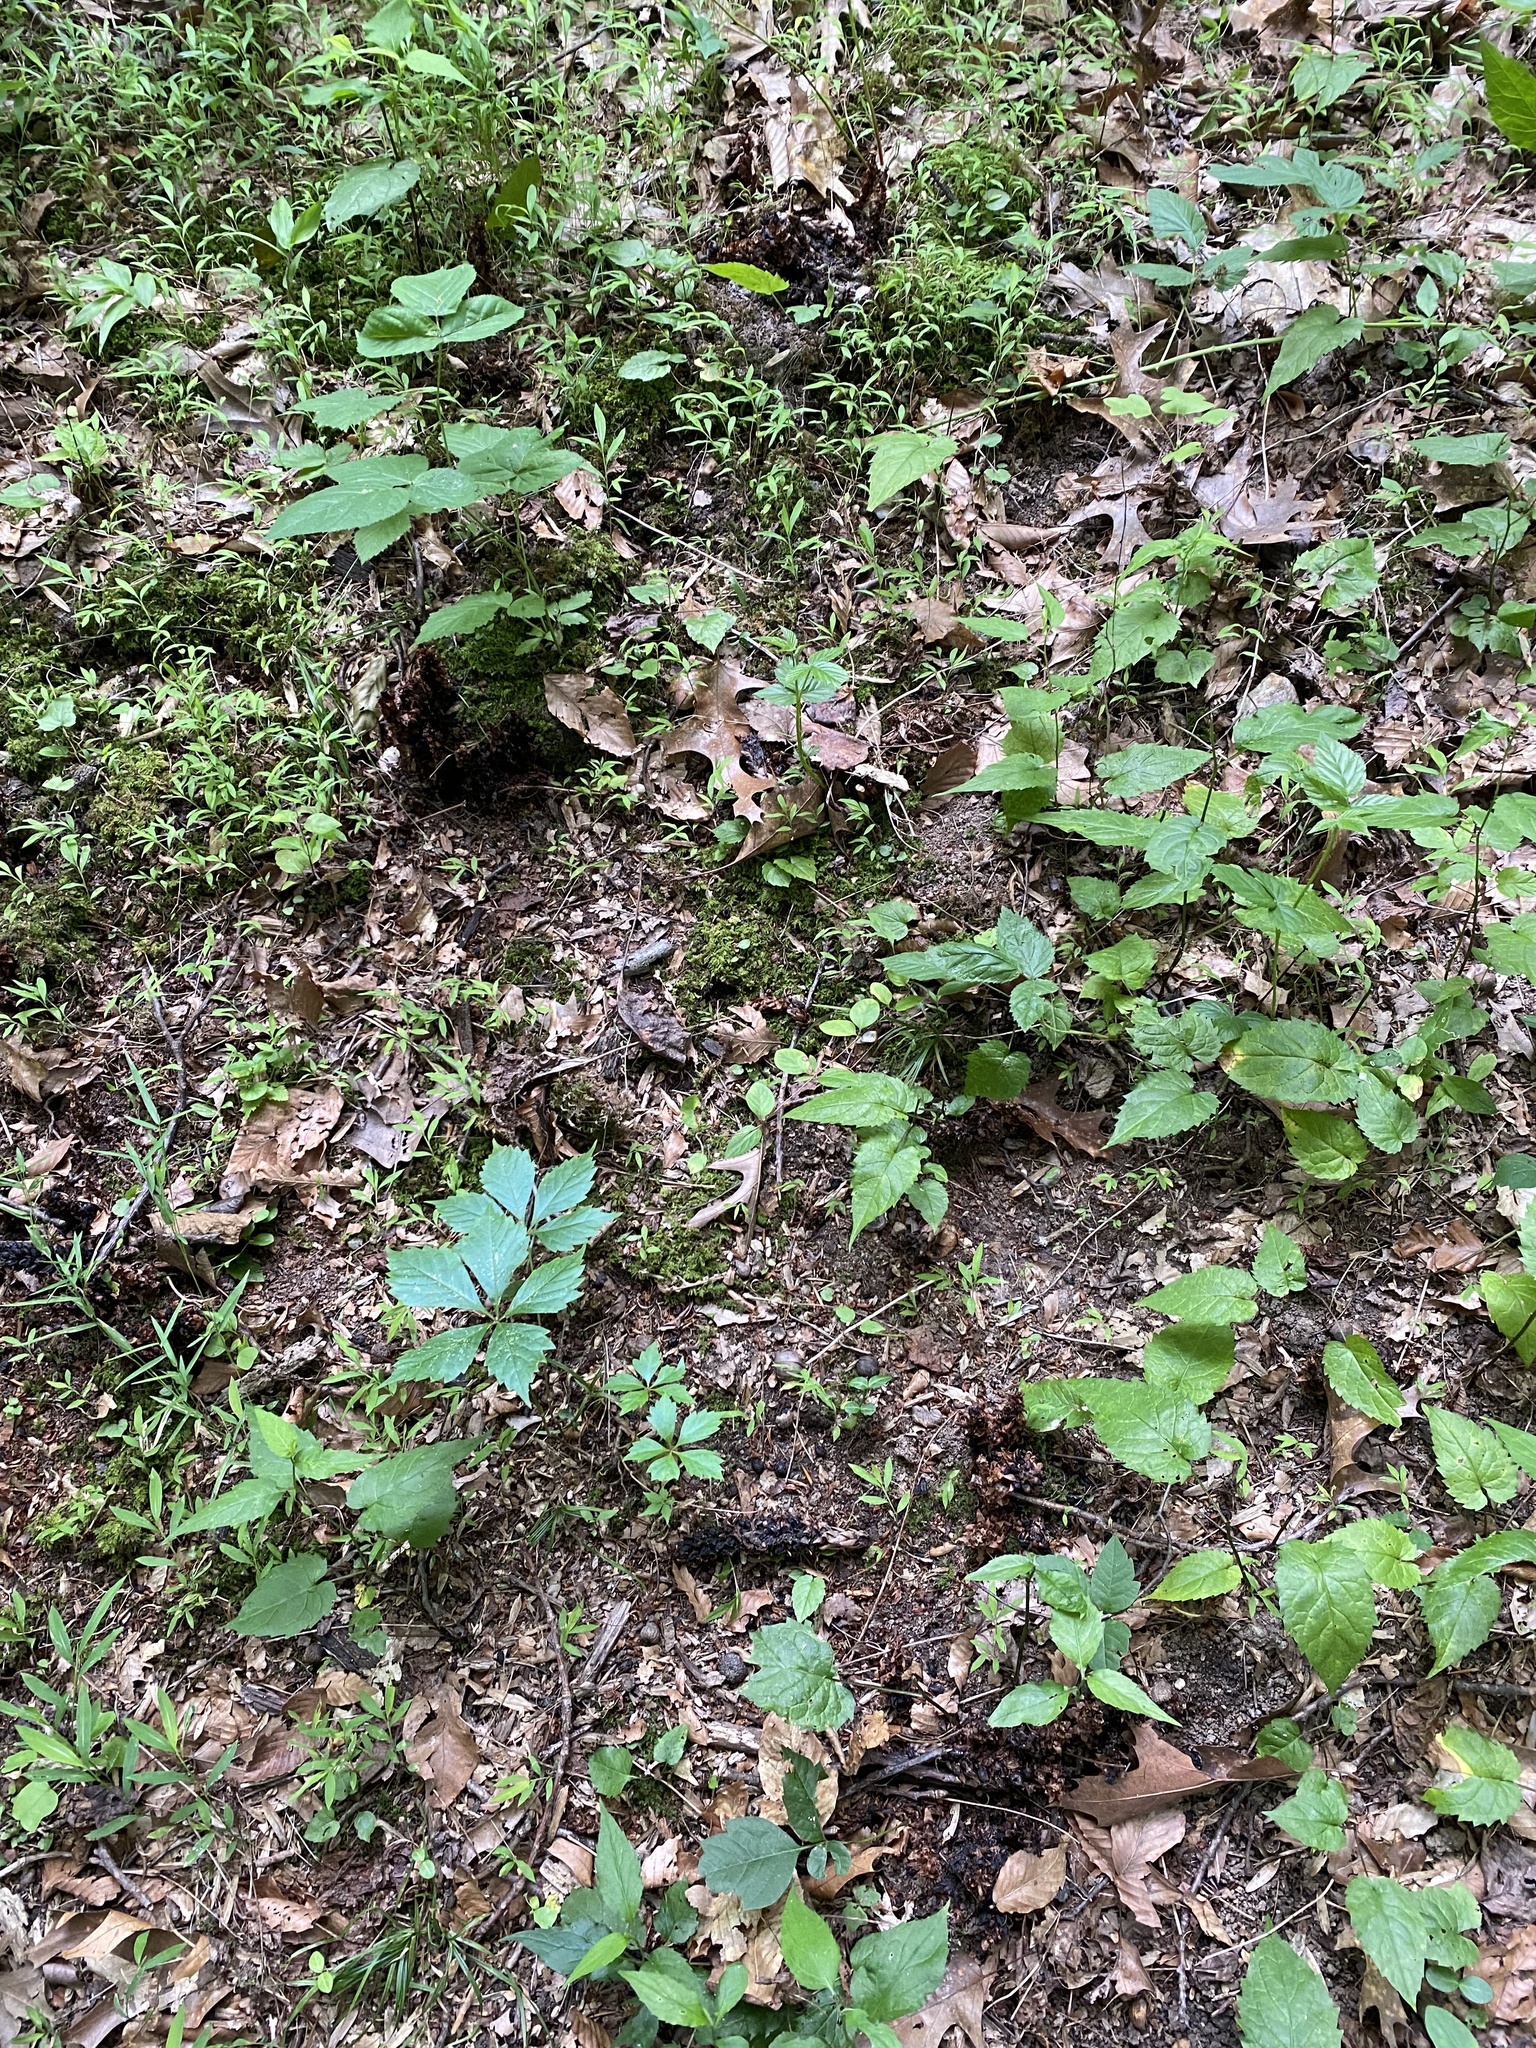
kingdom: Plantae
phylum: Tracheophyta
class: Magnoliopsida
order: Lamiales
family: Orobanchaceae
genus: Conopholis
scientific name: Conopholis americana
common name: American cancer-root
